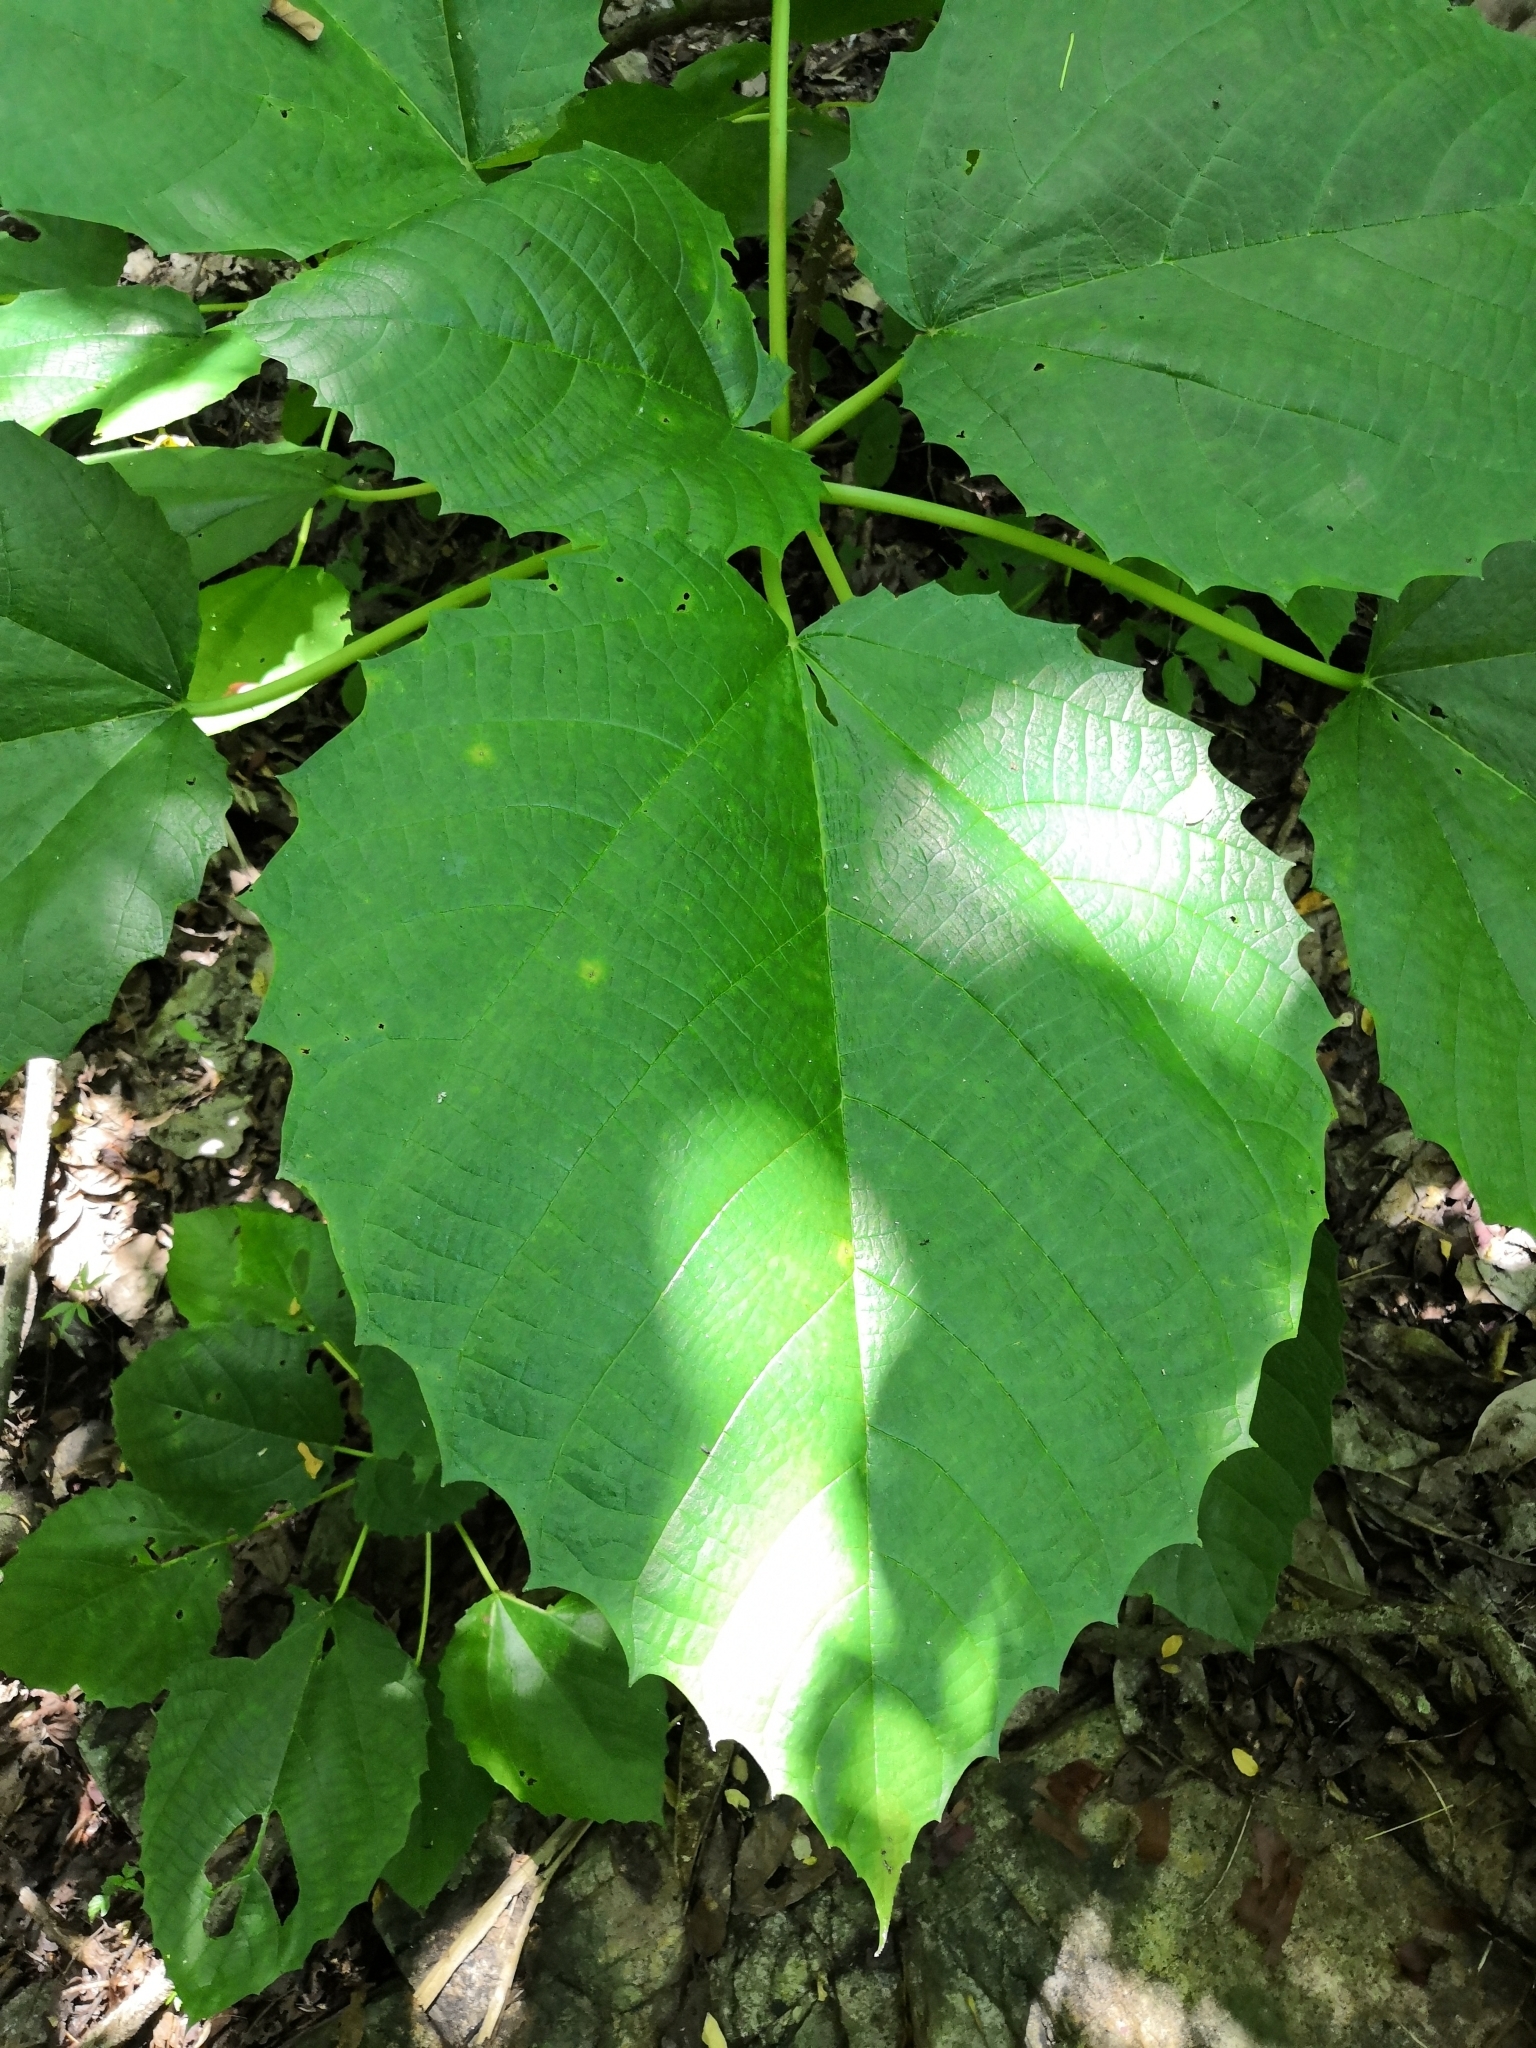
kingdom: Plantae
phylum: Tracheophyta
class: Magnoliopsida
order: Rosales
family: Urticaceae
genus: Urera
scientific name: Urera baccifera
